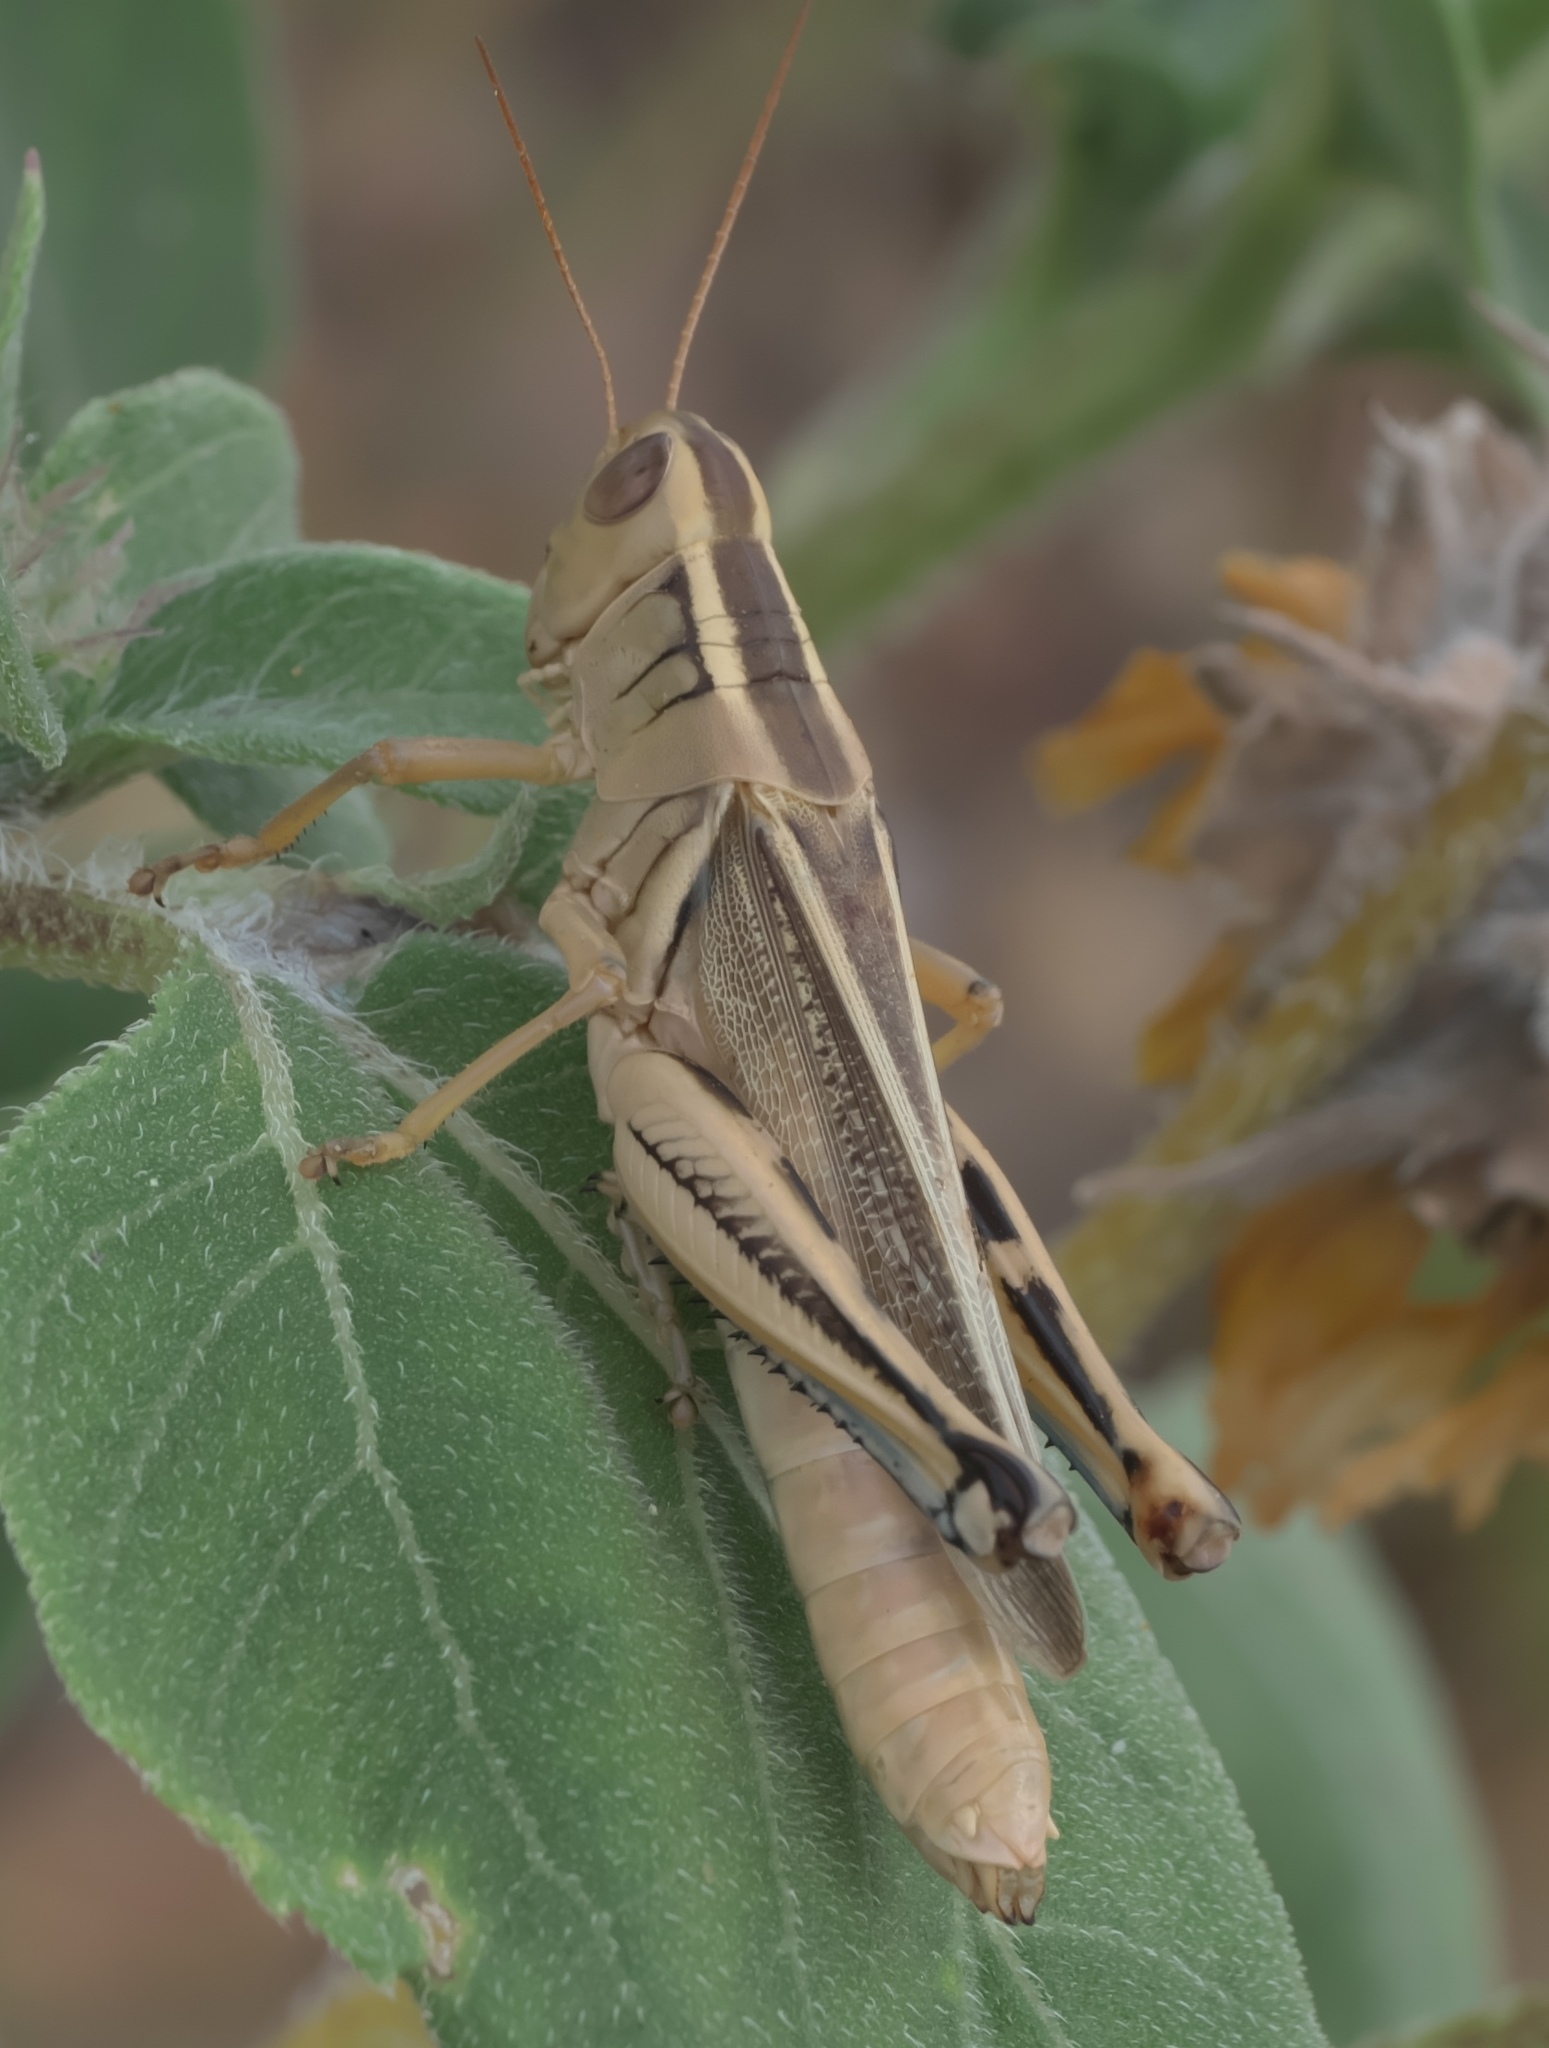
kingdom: Animalia
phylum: Arthropoda
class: Insecta
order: Orthoptera
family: Acrididae
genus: Melanoplus
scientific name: Melanoplus bivittatus
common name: Two-striped grasshopper
